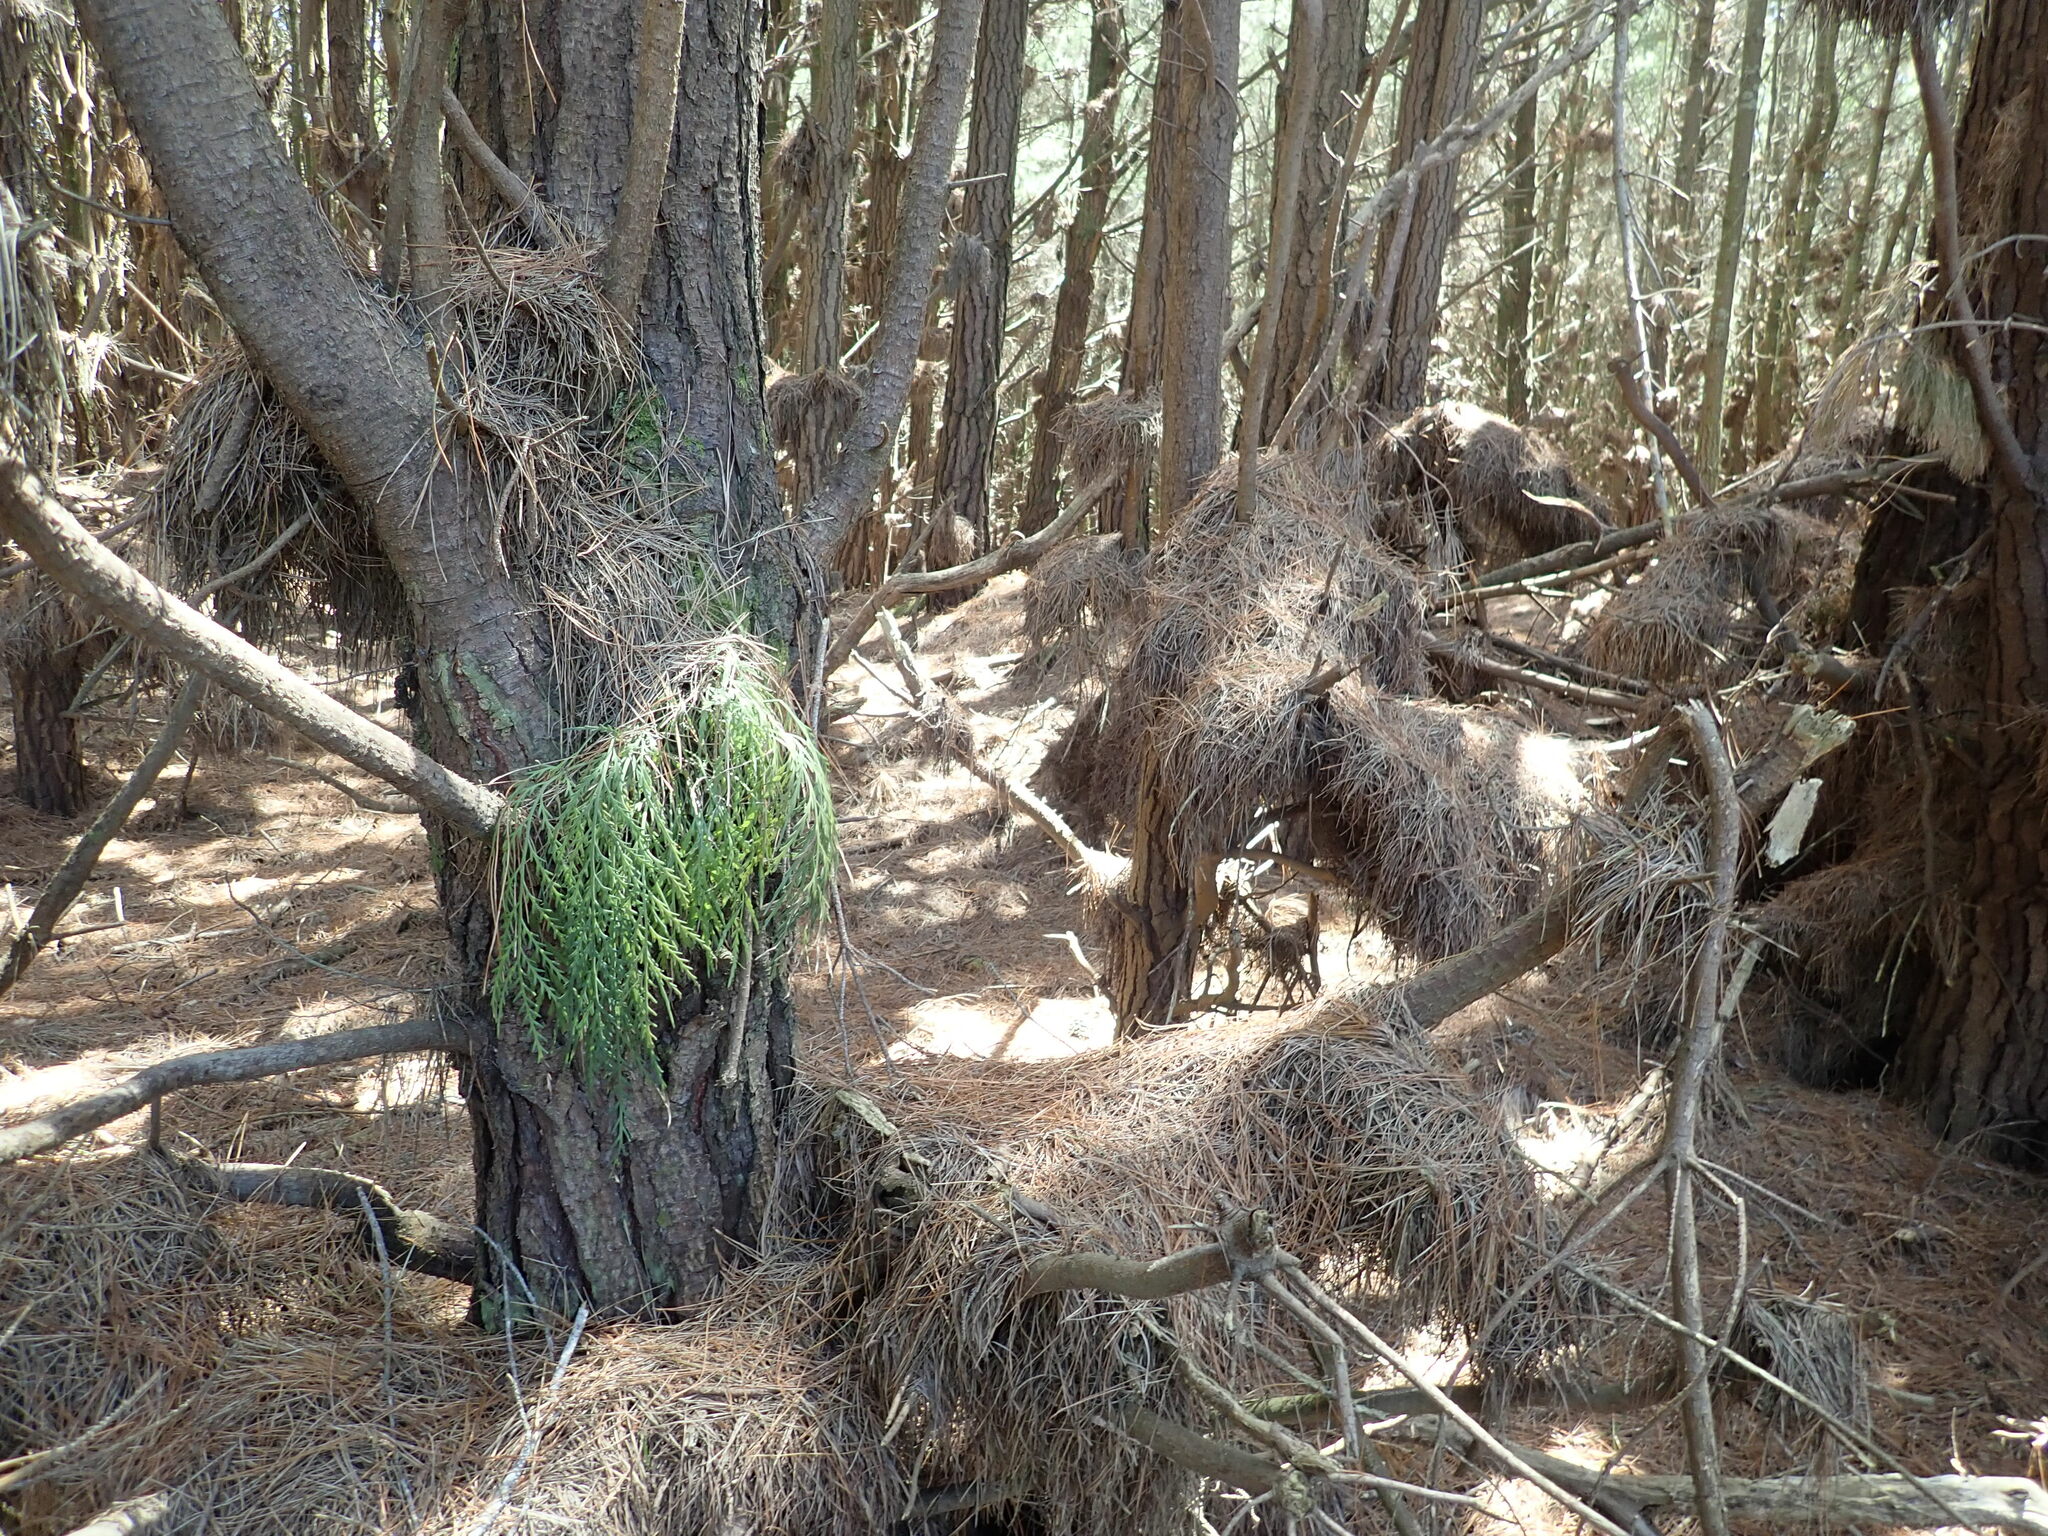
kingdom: Plantae
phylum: Tracheophyta
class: Polypodiopsida
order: Polypodiales
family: Aspleniaceae
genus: Asplenium
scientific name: Asplenium flaccidum
